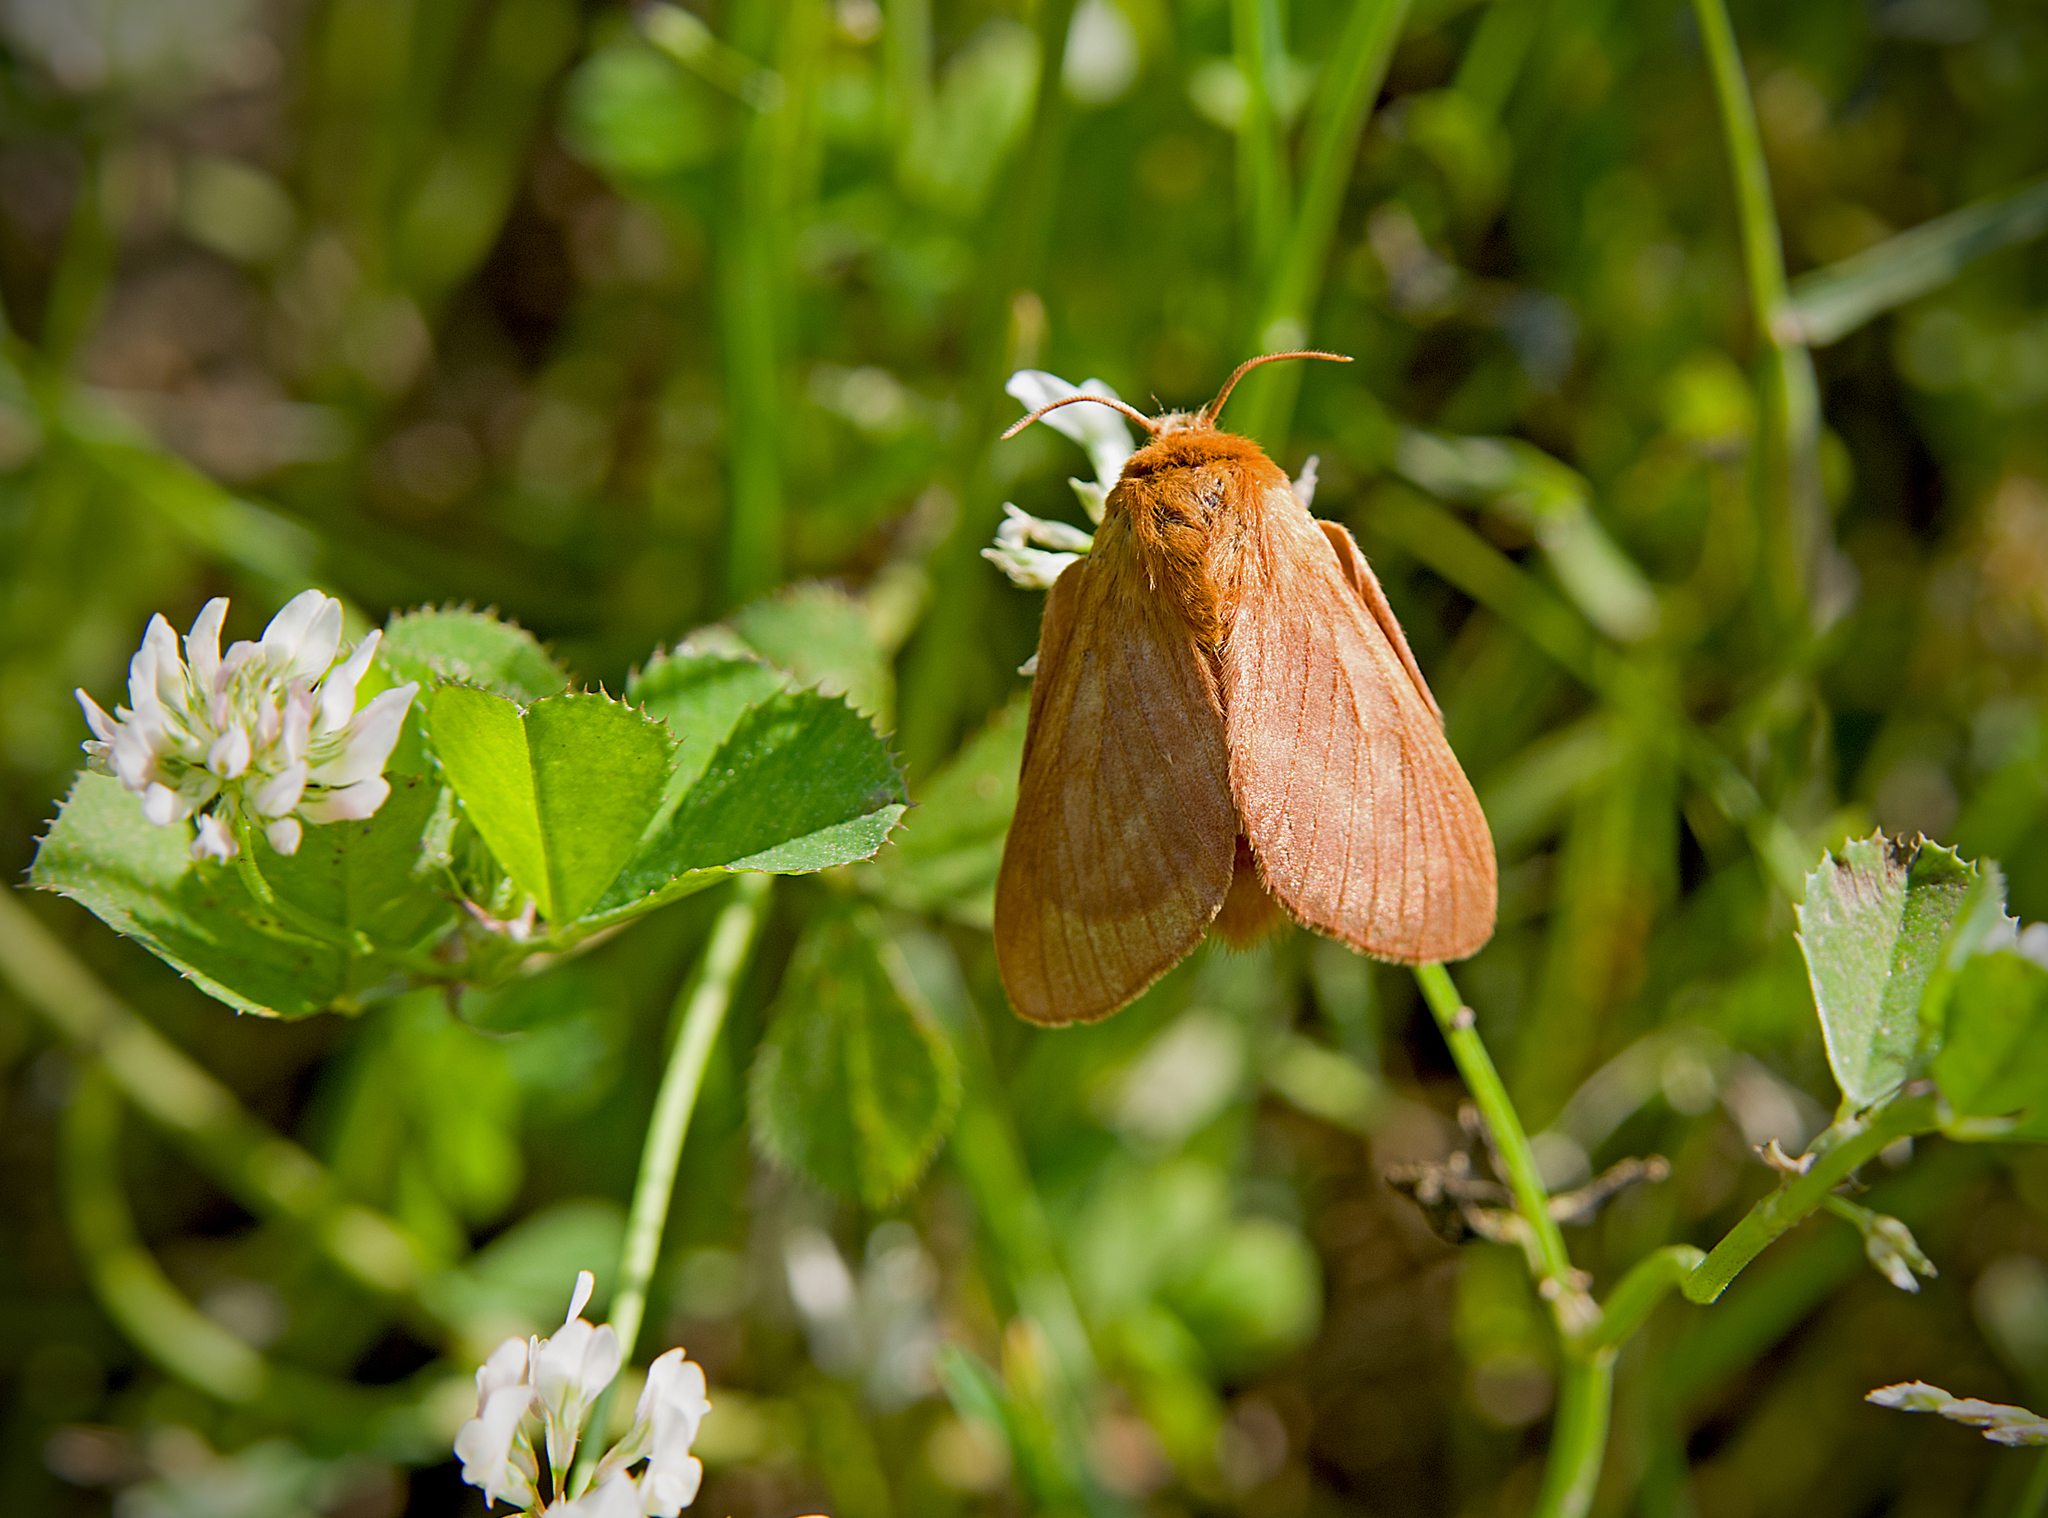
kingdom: Animalia
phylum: Arthropoda
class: Insecta
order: Lepidoptera
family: Lasiocampidae
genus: Malacosoma
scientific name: Malacosoma franconica
